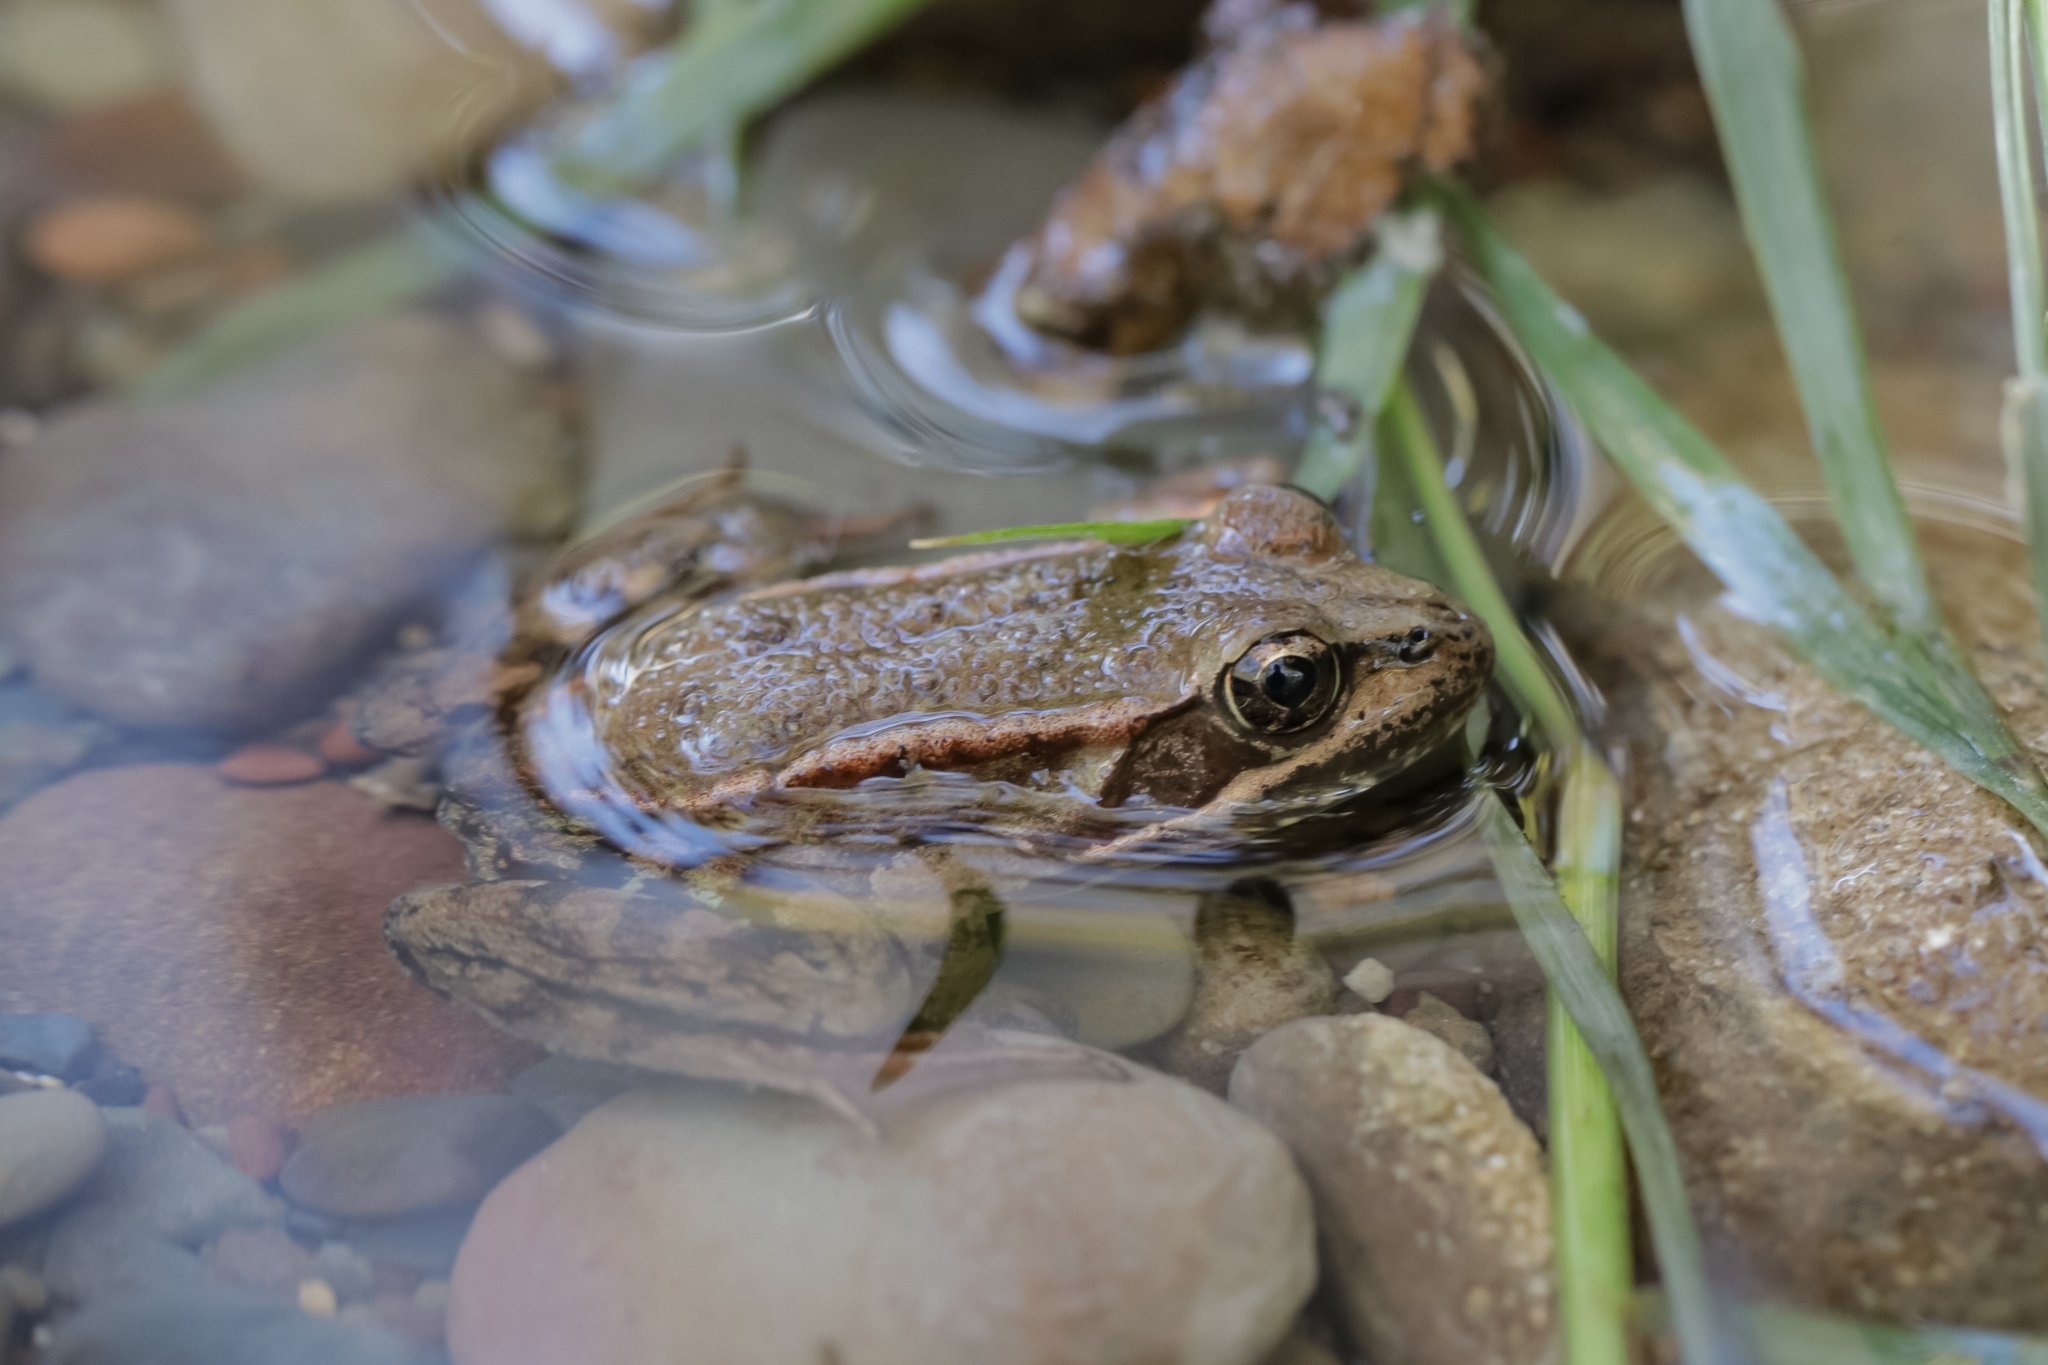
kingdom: Animalia
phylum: Chordata
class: Amphibia
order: Anura
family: Ranidae
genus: Rana
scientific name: Rana draytonii
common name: California red-legged frog
